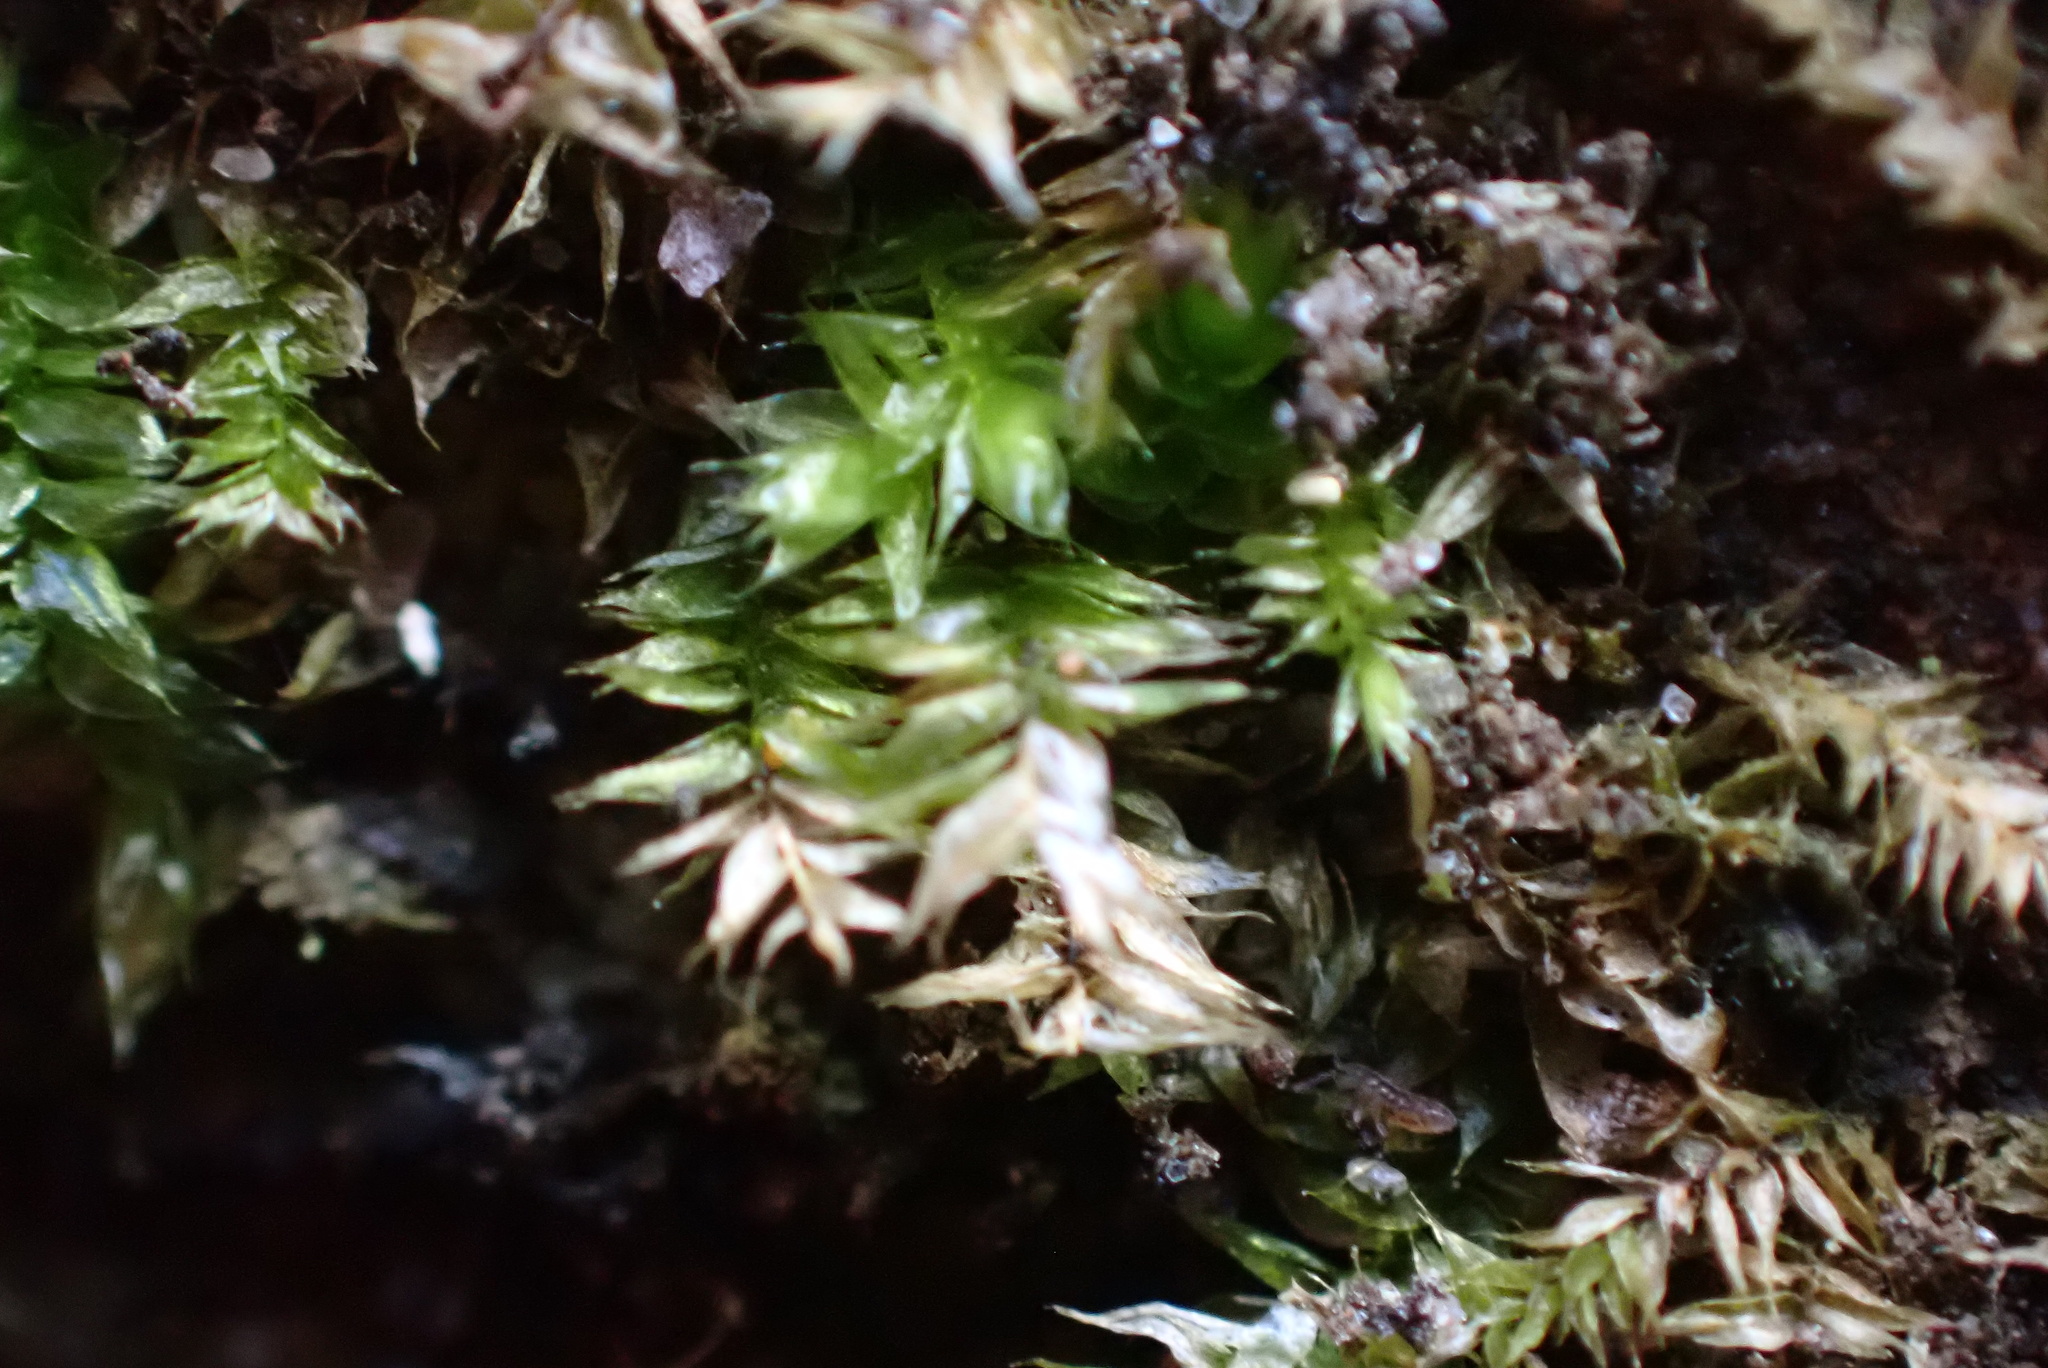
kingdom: Plantae
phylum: Bryophyta
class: Bryopsida
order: Hypnales
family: Brachytheciaceae
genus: Rhynchostegium
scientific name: Rhynchostegium serrulatum
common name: Serrulate-leaved long-beaked moss
